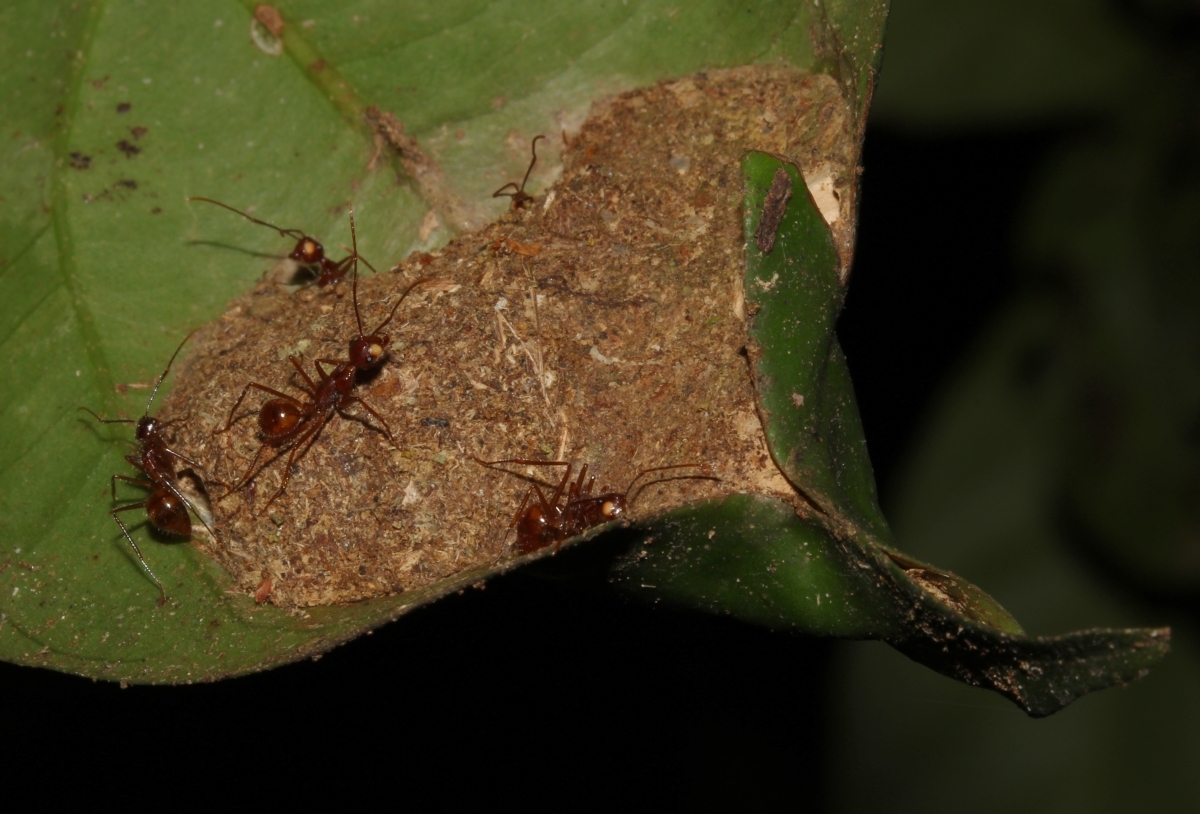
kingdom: Animalia
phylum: Arthropoda
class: Insecta
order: Hymenoptera
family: Formicidae
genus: Dendromyrmex
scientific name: Dendromyrmex chartifex
